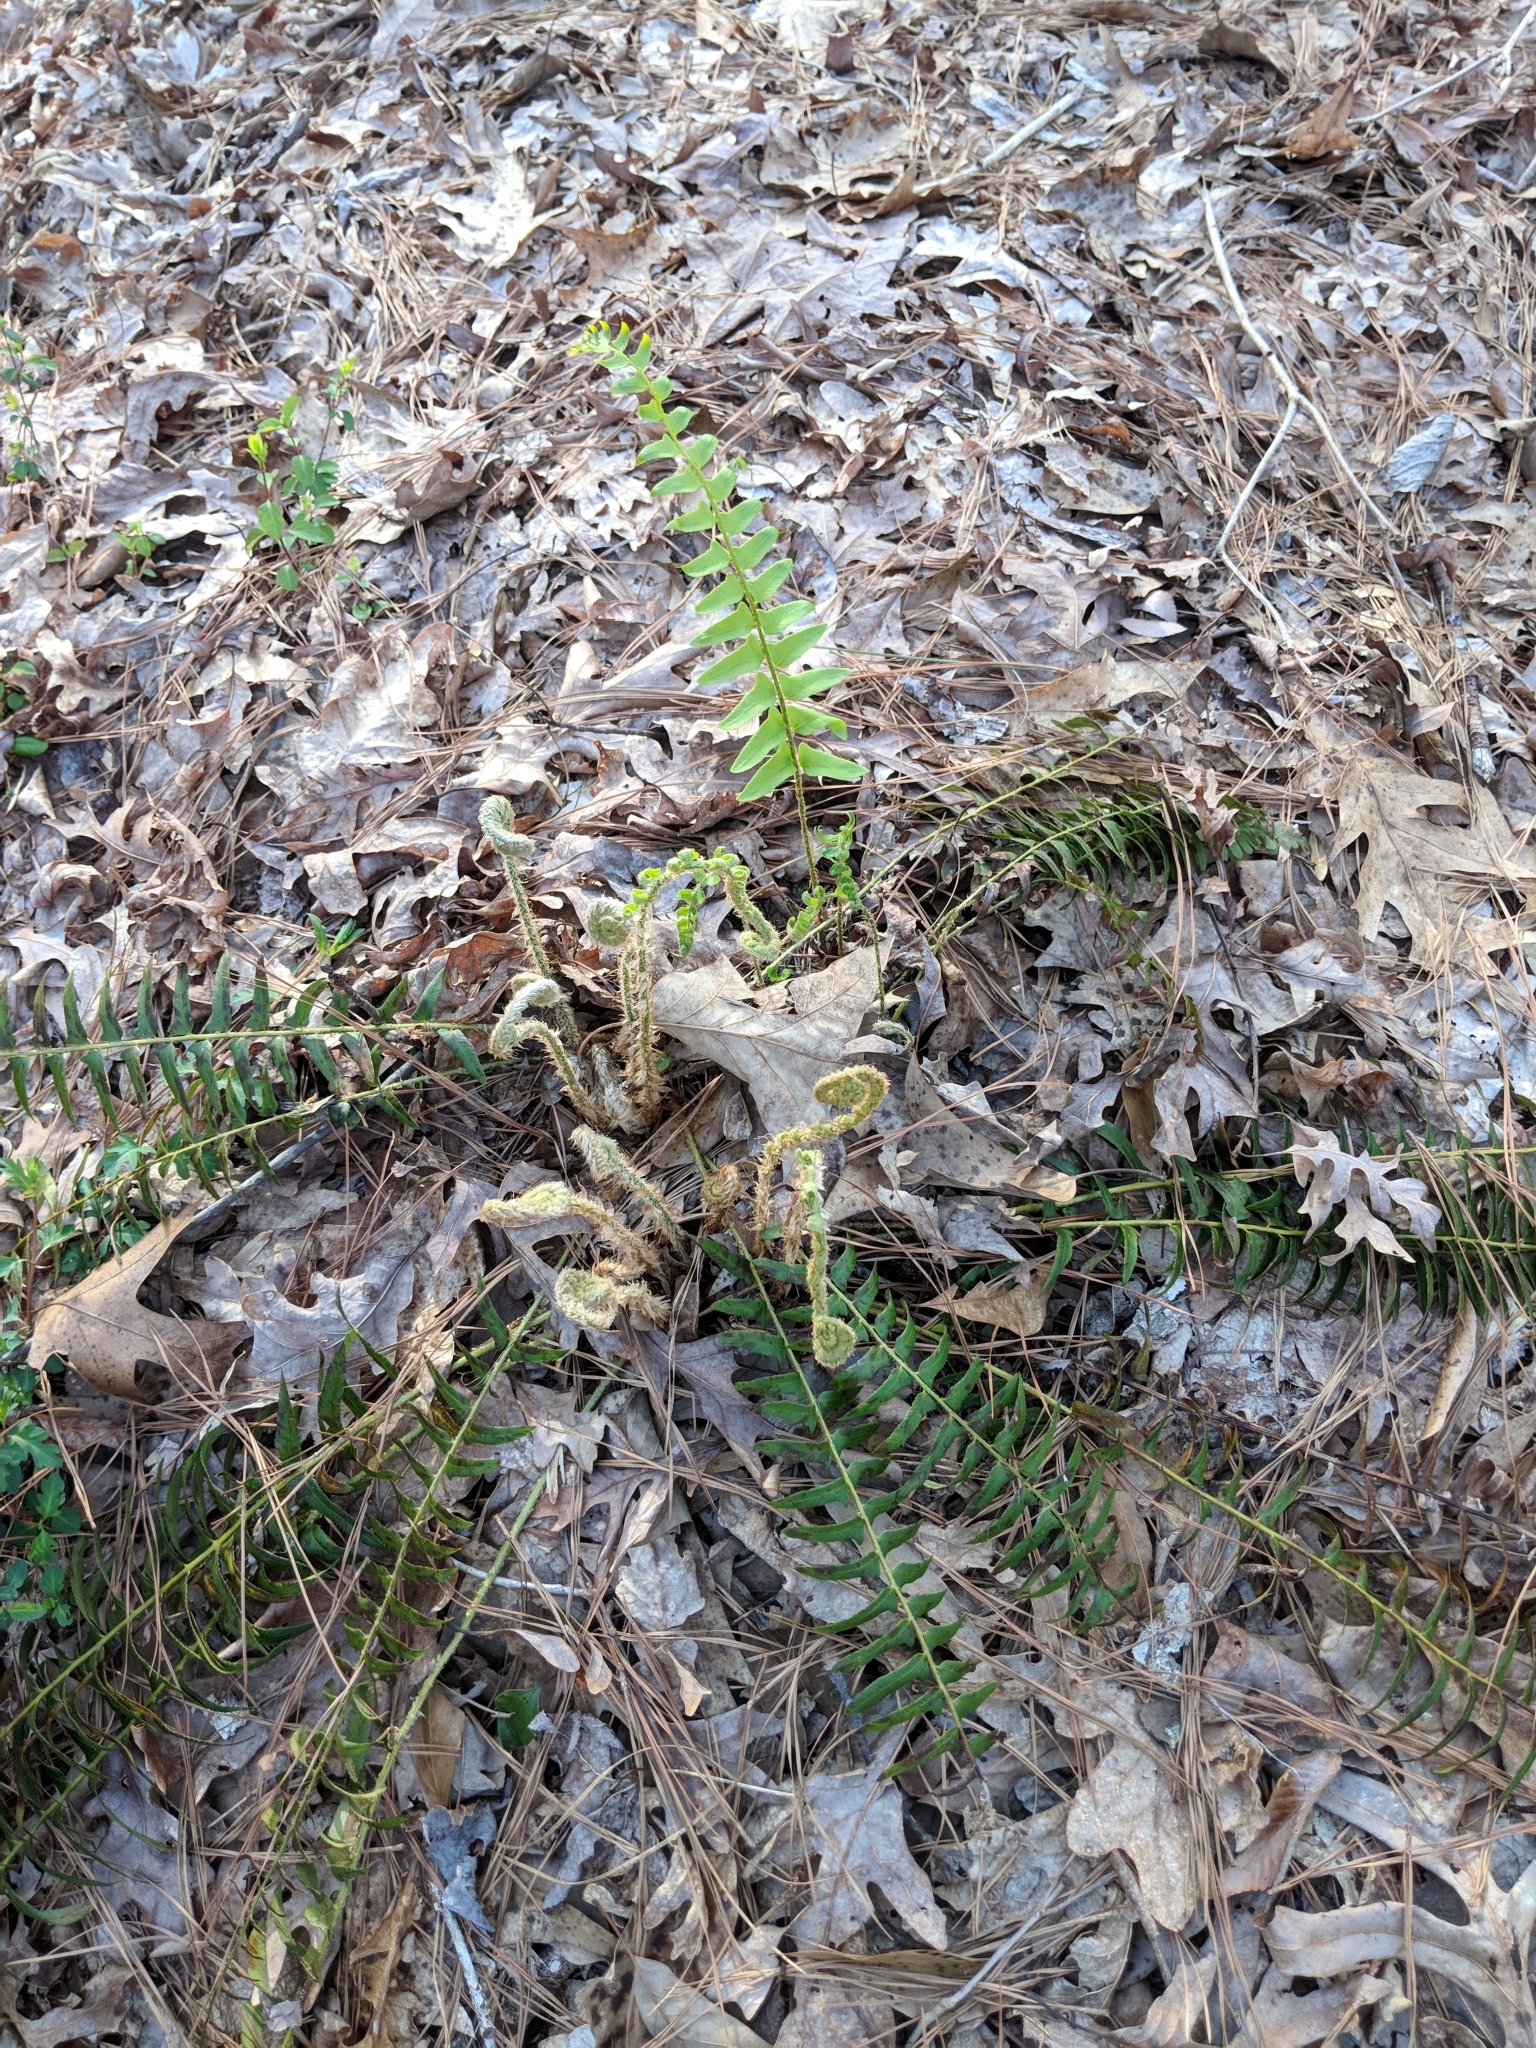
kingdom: Plantae
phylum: Tracheophyta
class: Polypodiopsida
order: Polypodiales
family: Dryopteridaceae
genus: Polystichum
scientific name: Polystichum acrostichoides
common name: Christmas fern
